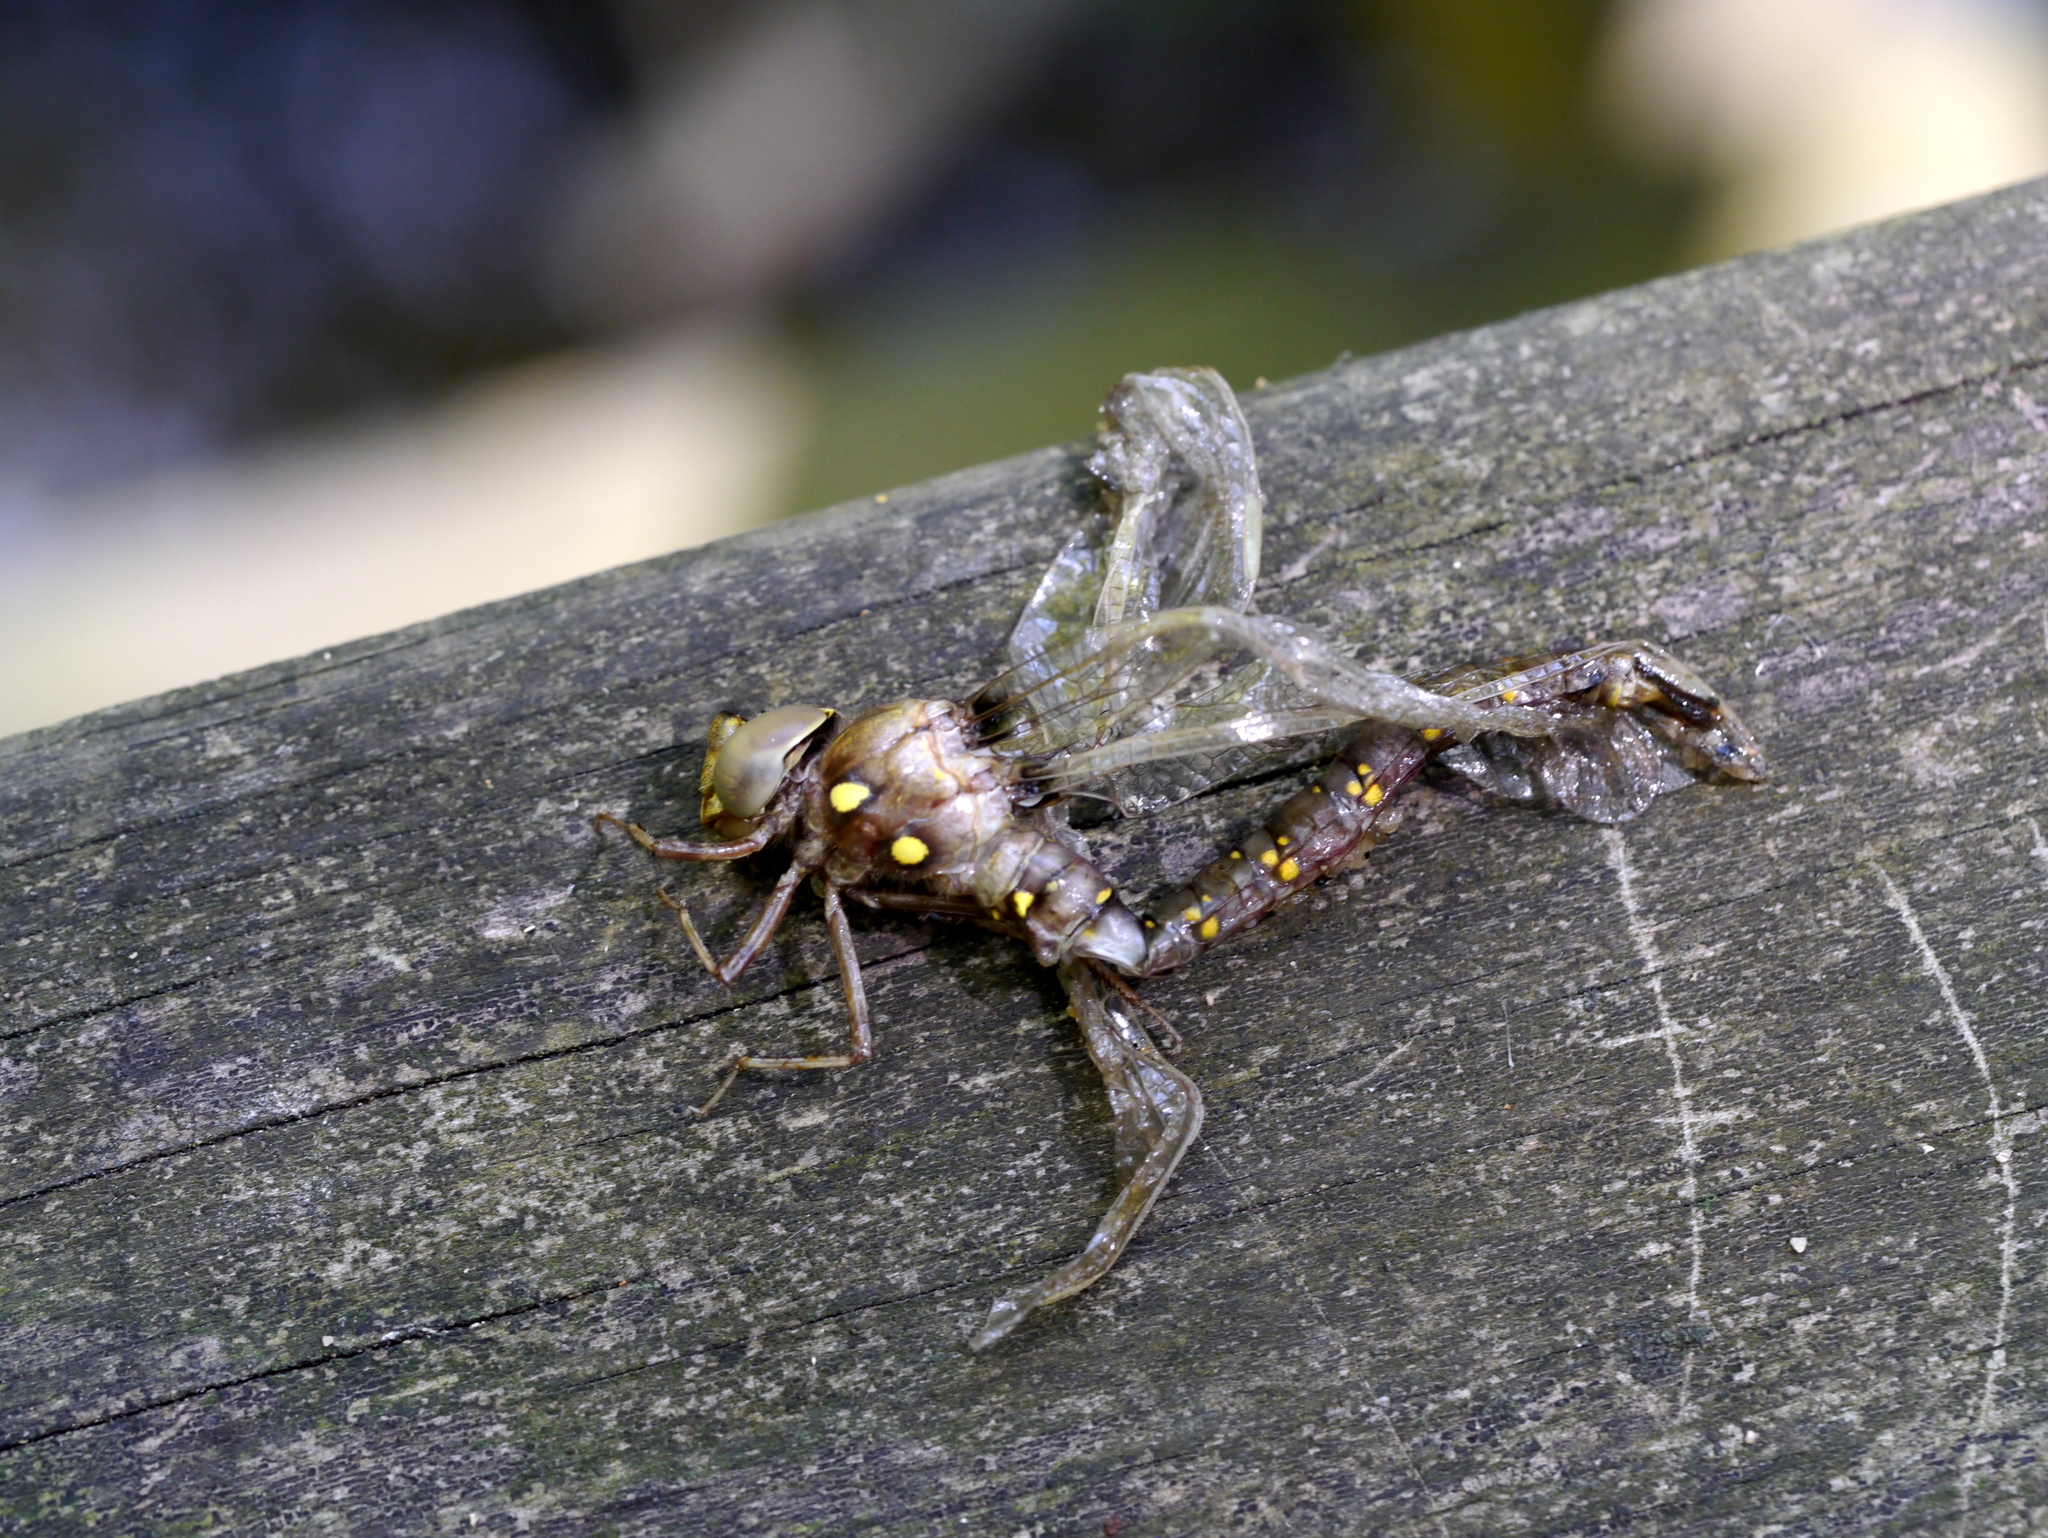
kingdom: Animalia
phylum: Arthropoda
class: Insecta
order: Odonata
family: Aeshnidae
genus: Boyeria
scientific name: Boyeria vinosa
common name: Fawn darner
